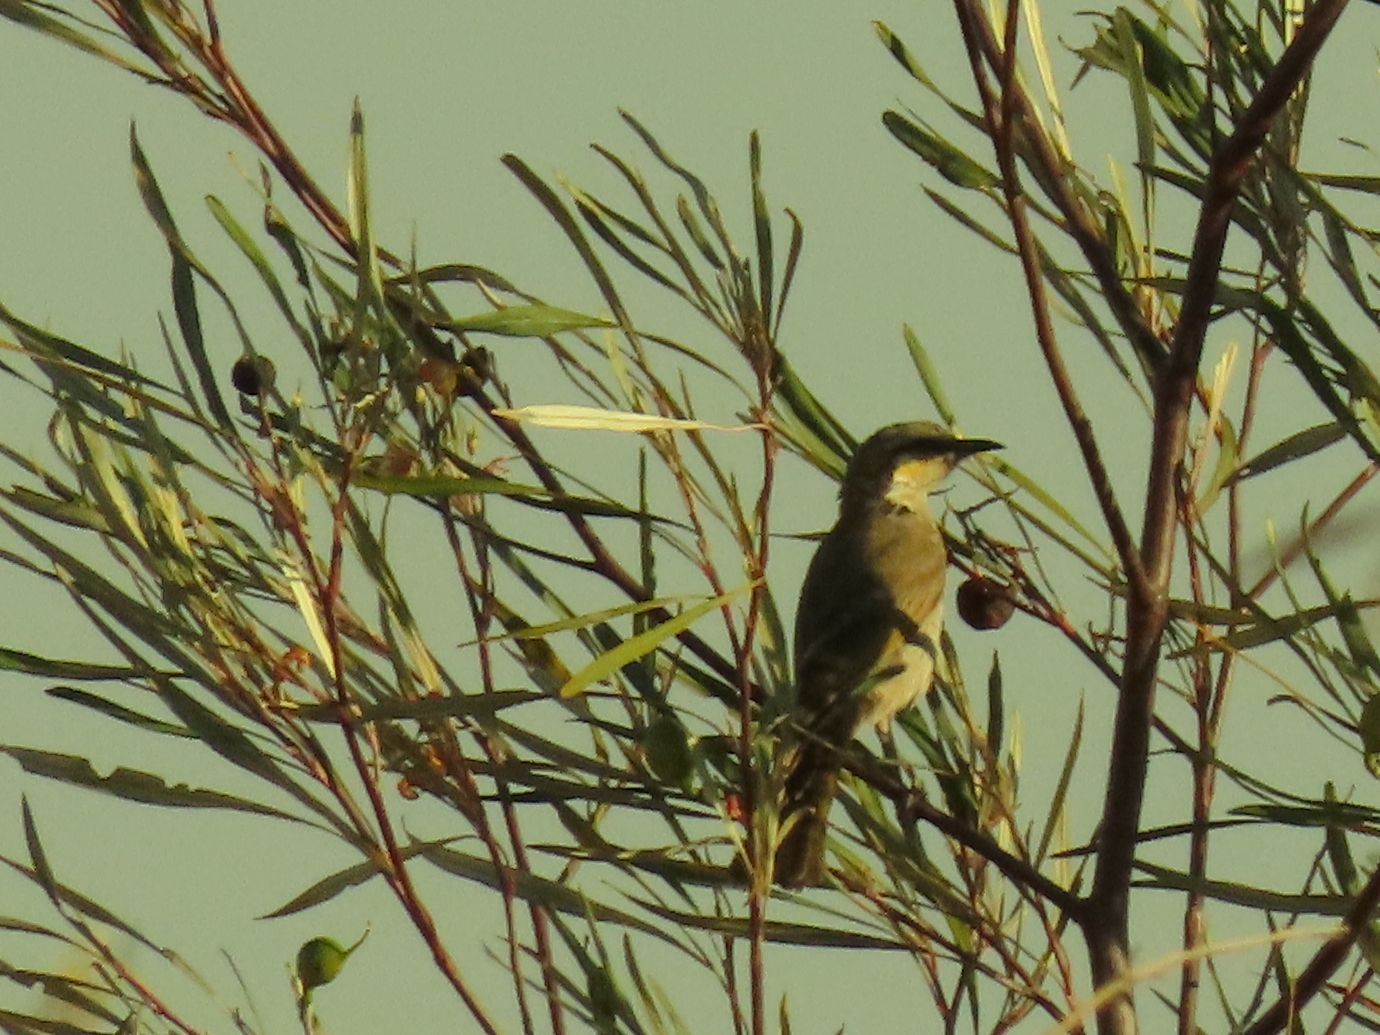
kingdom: Animalia
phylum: Chordata
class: Aves
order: Passeriformes
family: Meliphagidae
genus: Gavicalis
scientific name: Gavicalis virescens
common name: Singing honeyeater
